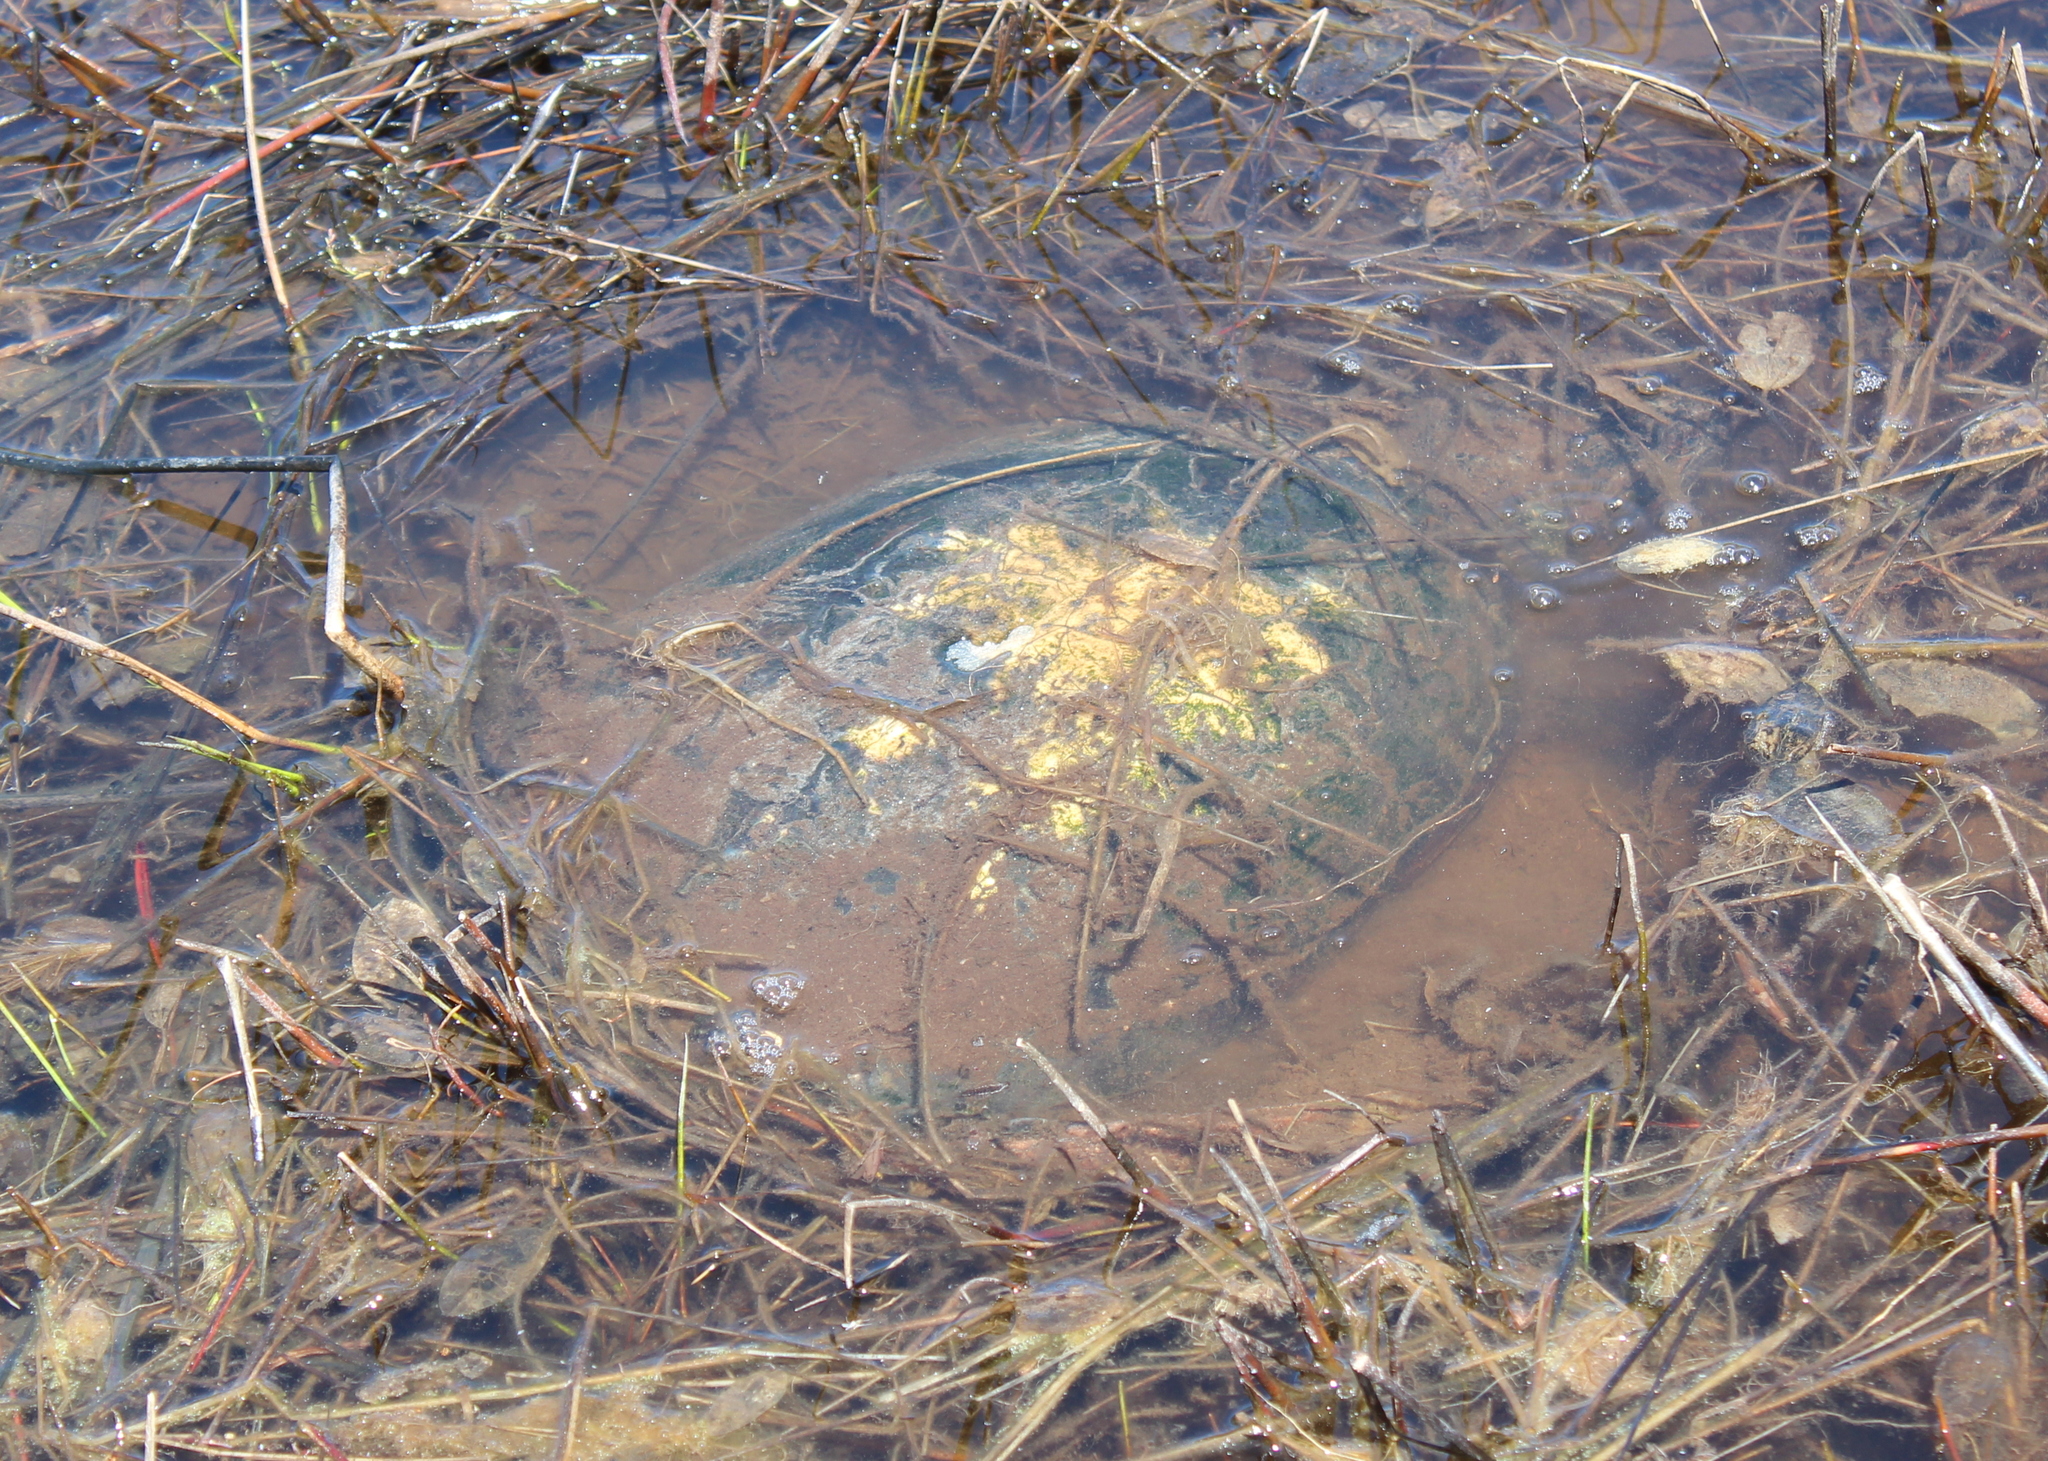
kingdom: Animalia
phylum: Chordata
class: Testudines
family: Chelydridae
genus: Chelydra
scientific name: Chelydra serpentina
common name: Common snapping turtle
